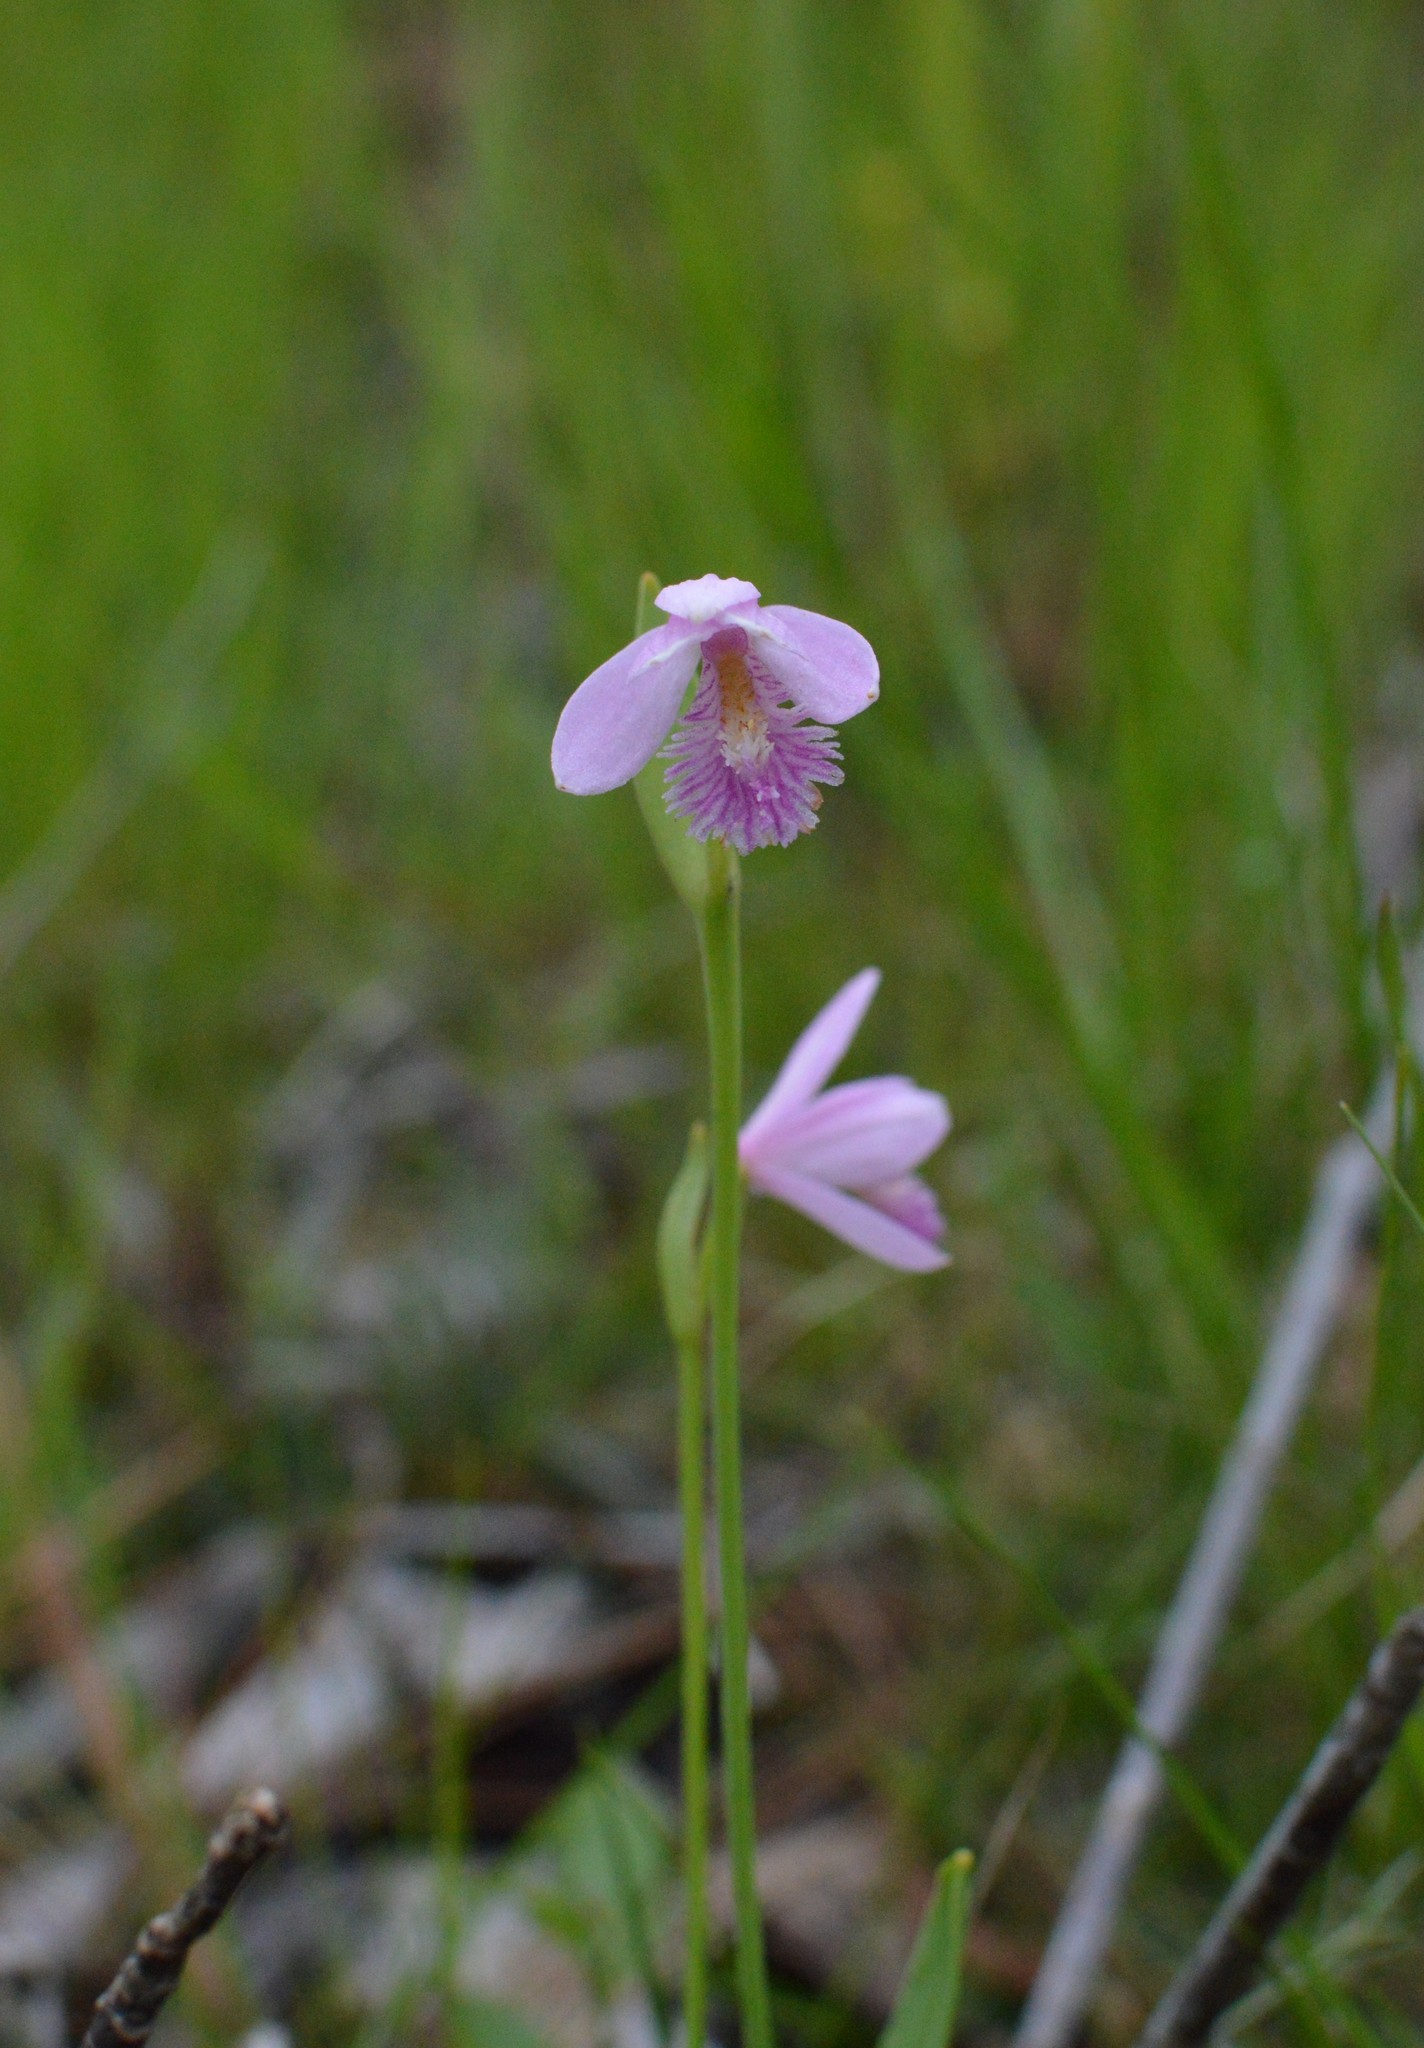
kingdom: Plantae
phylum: Tracheophyta
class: Liliopsida
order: Asparagales
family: Orchidaceae
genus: Pogonia
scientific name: Pogonia ophioglossoides
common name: Rose pogonia
